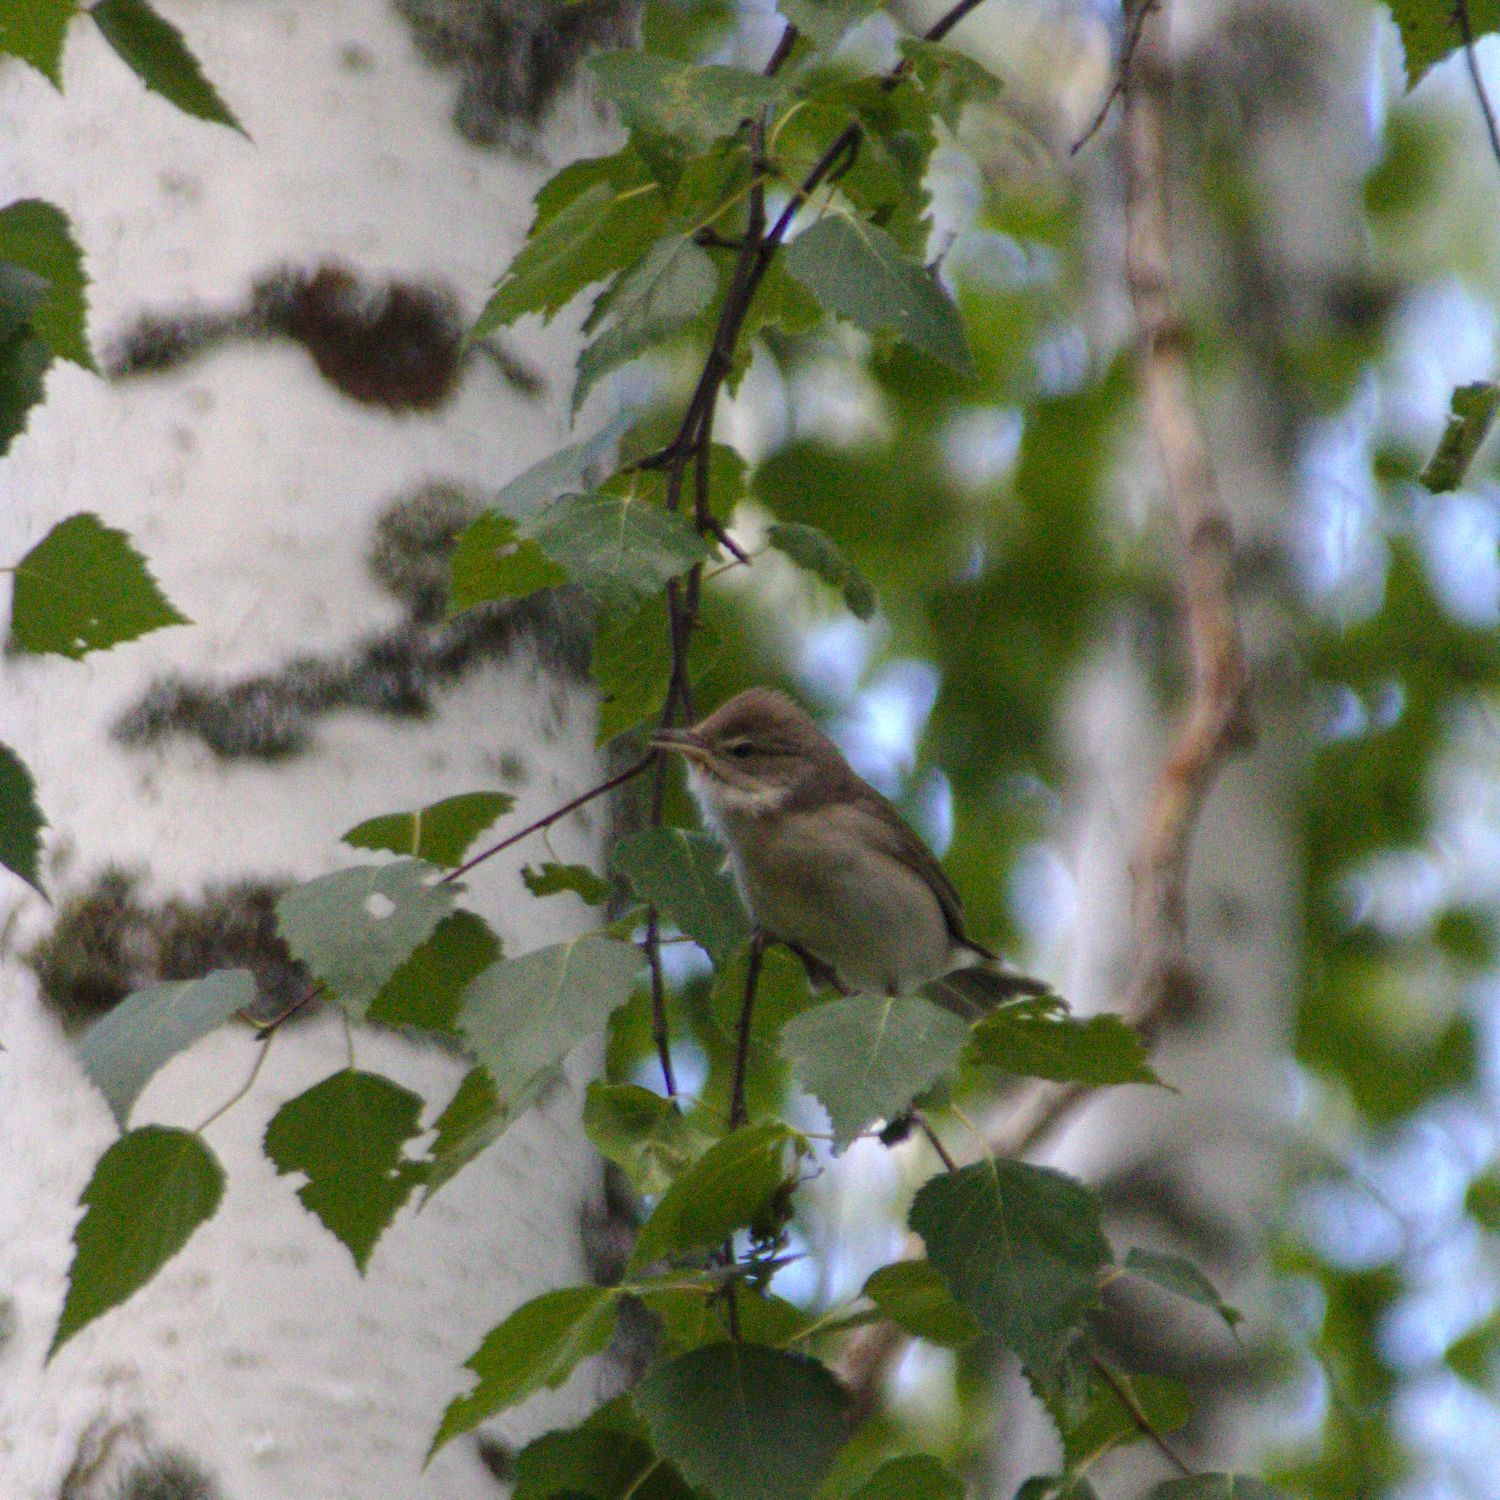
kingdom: Animalia
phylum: Chordata
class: Aves
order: Passeriformes
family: Acrocephalidae
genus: Acrocephalus
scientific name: Acrocephalus dumetorum
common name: Blyth's reed warbler
